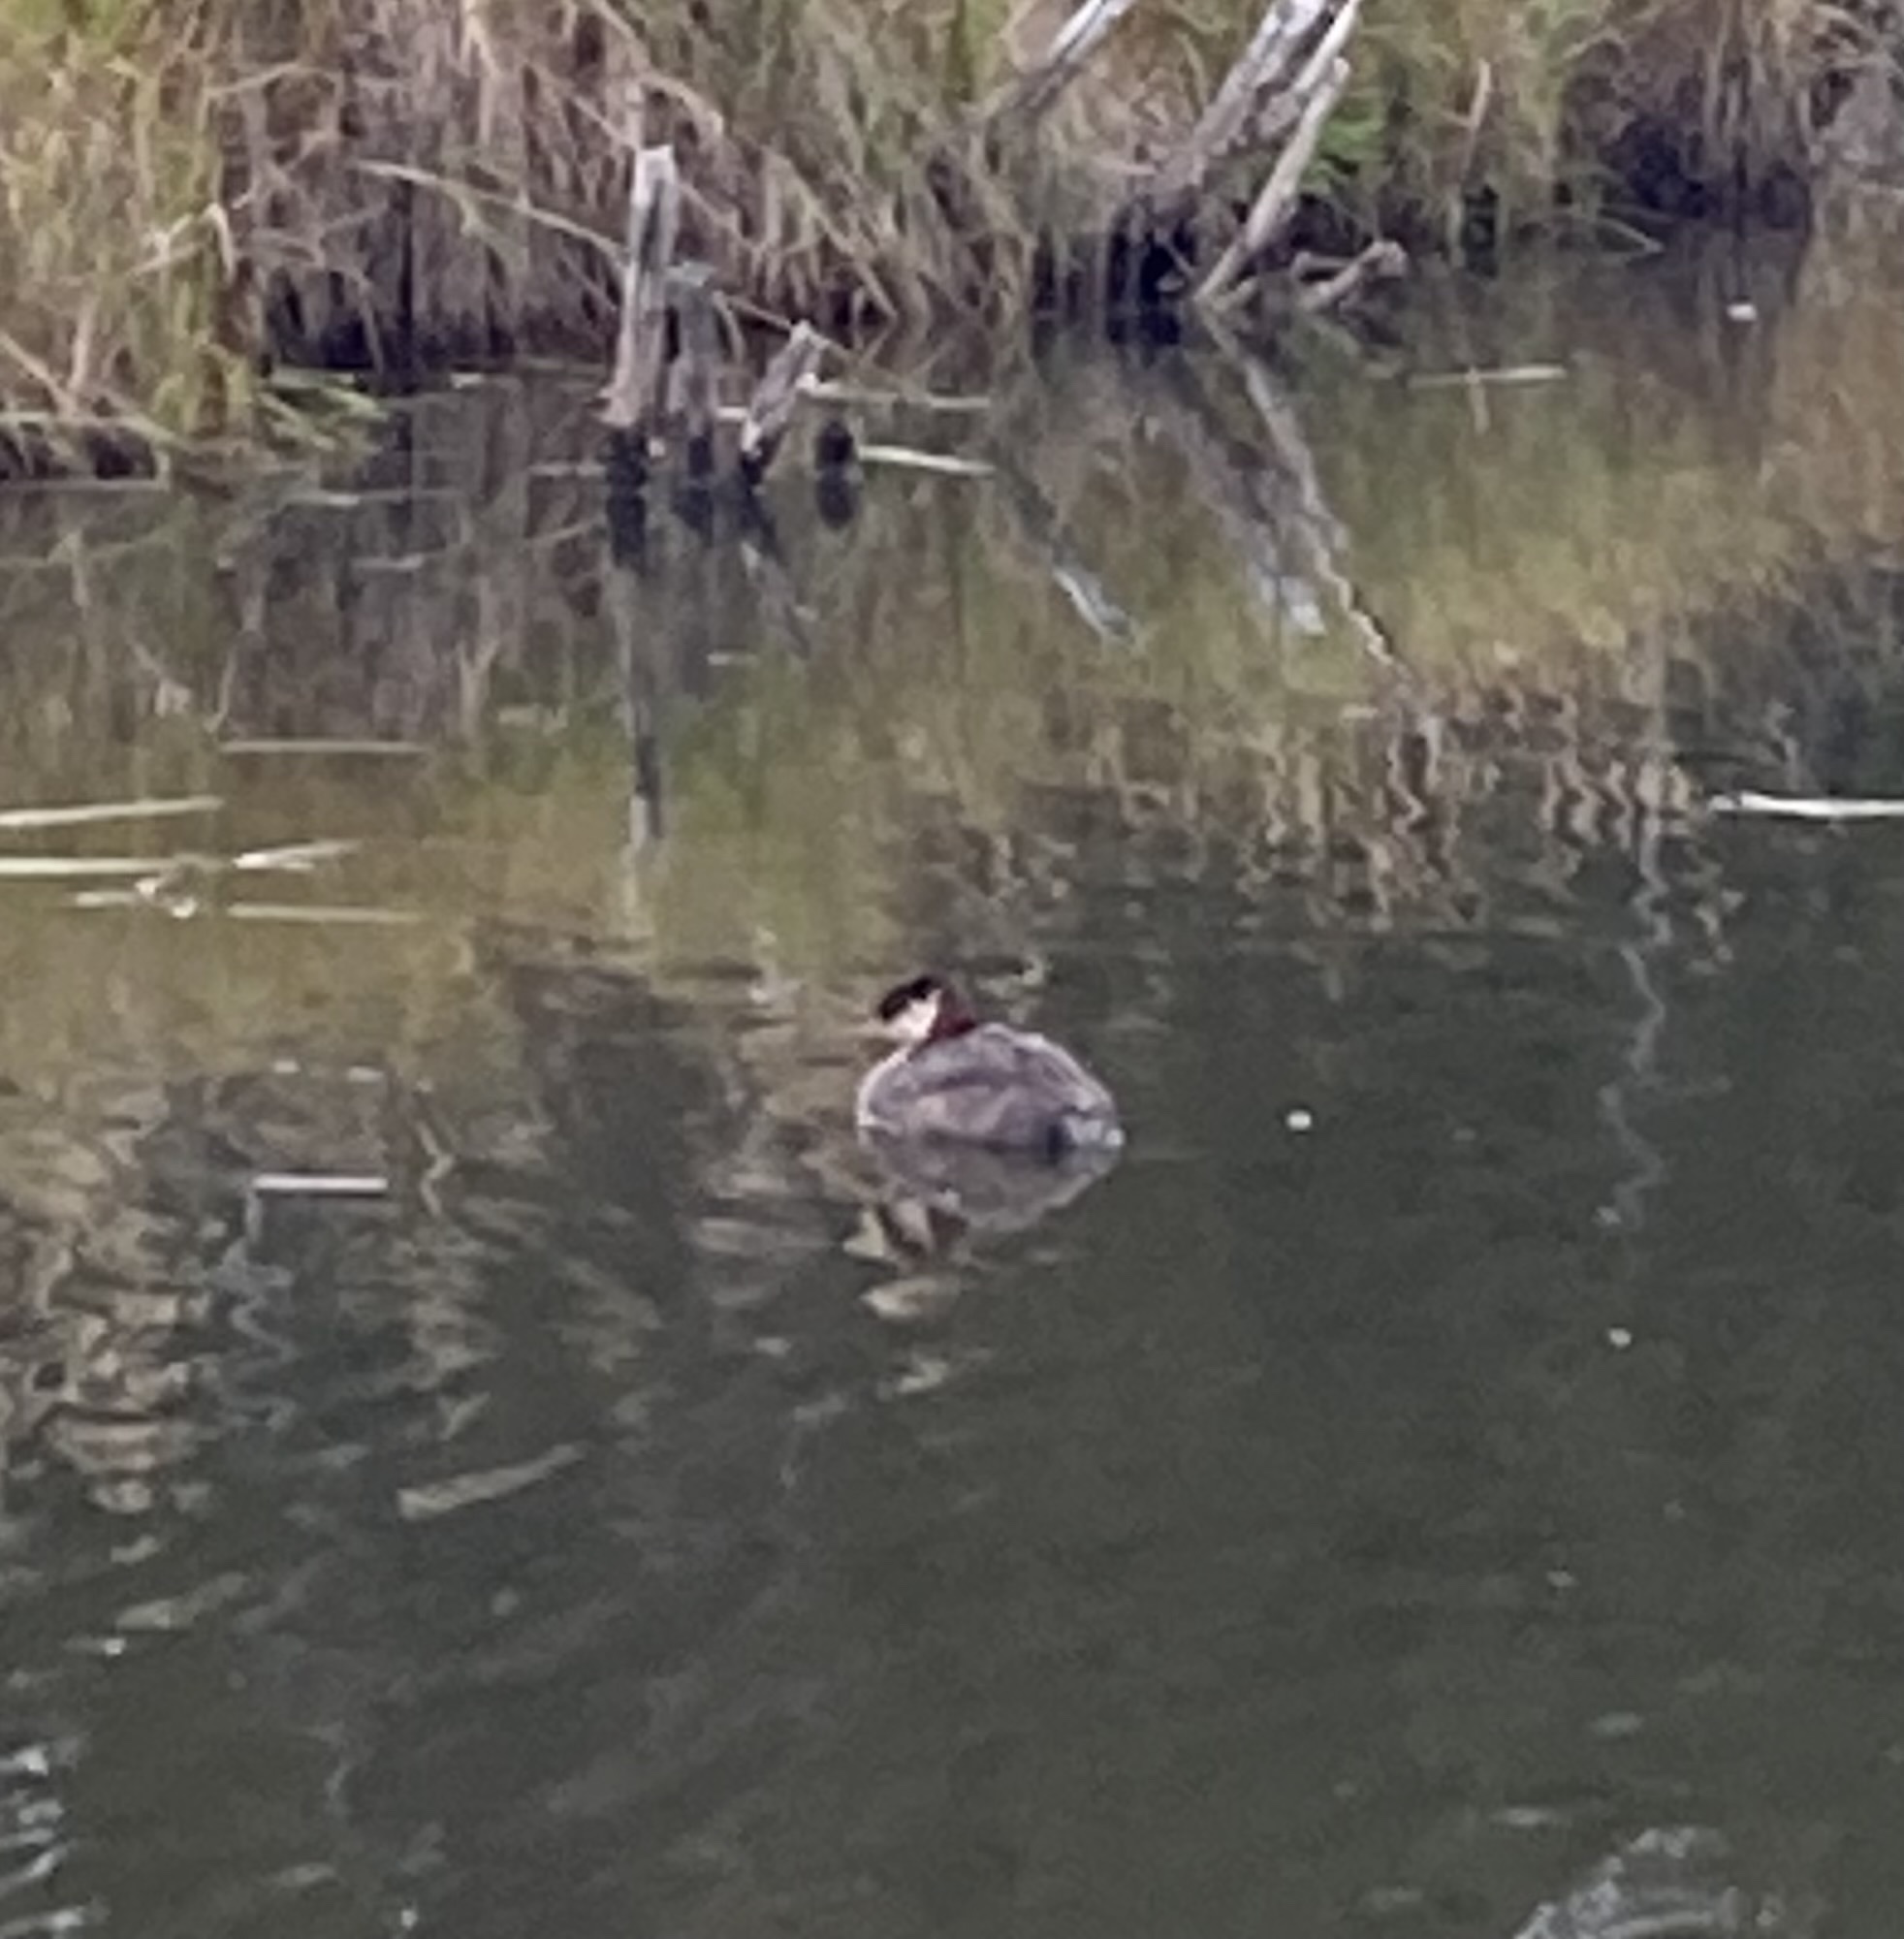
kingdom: Animalia
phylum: Chordata
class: Aves
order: Podicipediformes
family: Podicipedidae
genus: Podiceps
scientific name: Podiceps grisegena
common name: Red-necked grebe
